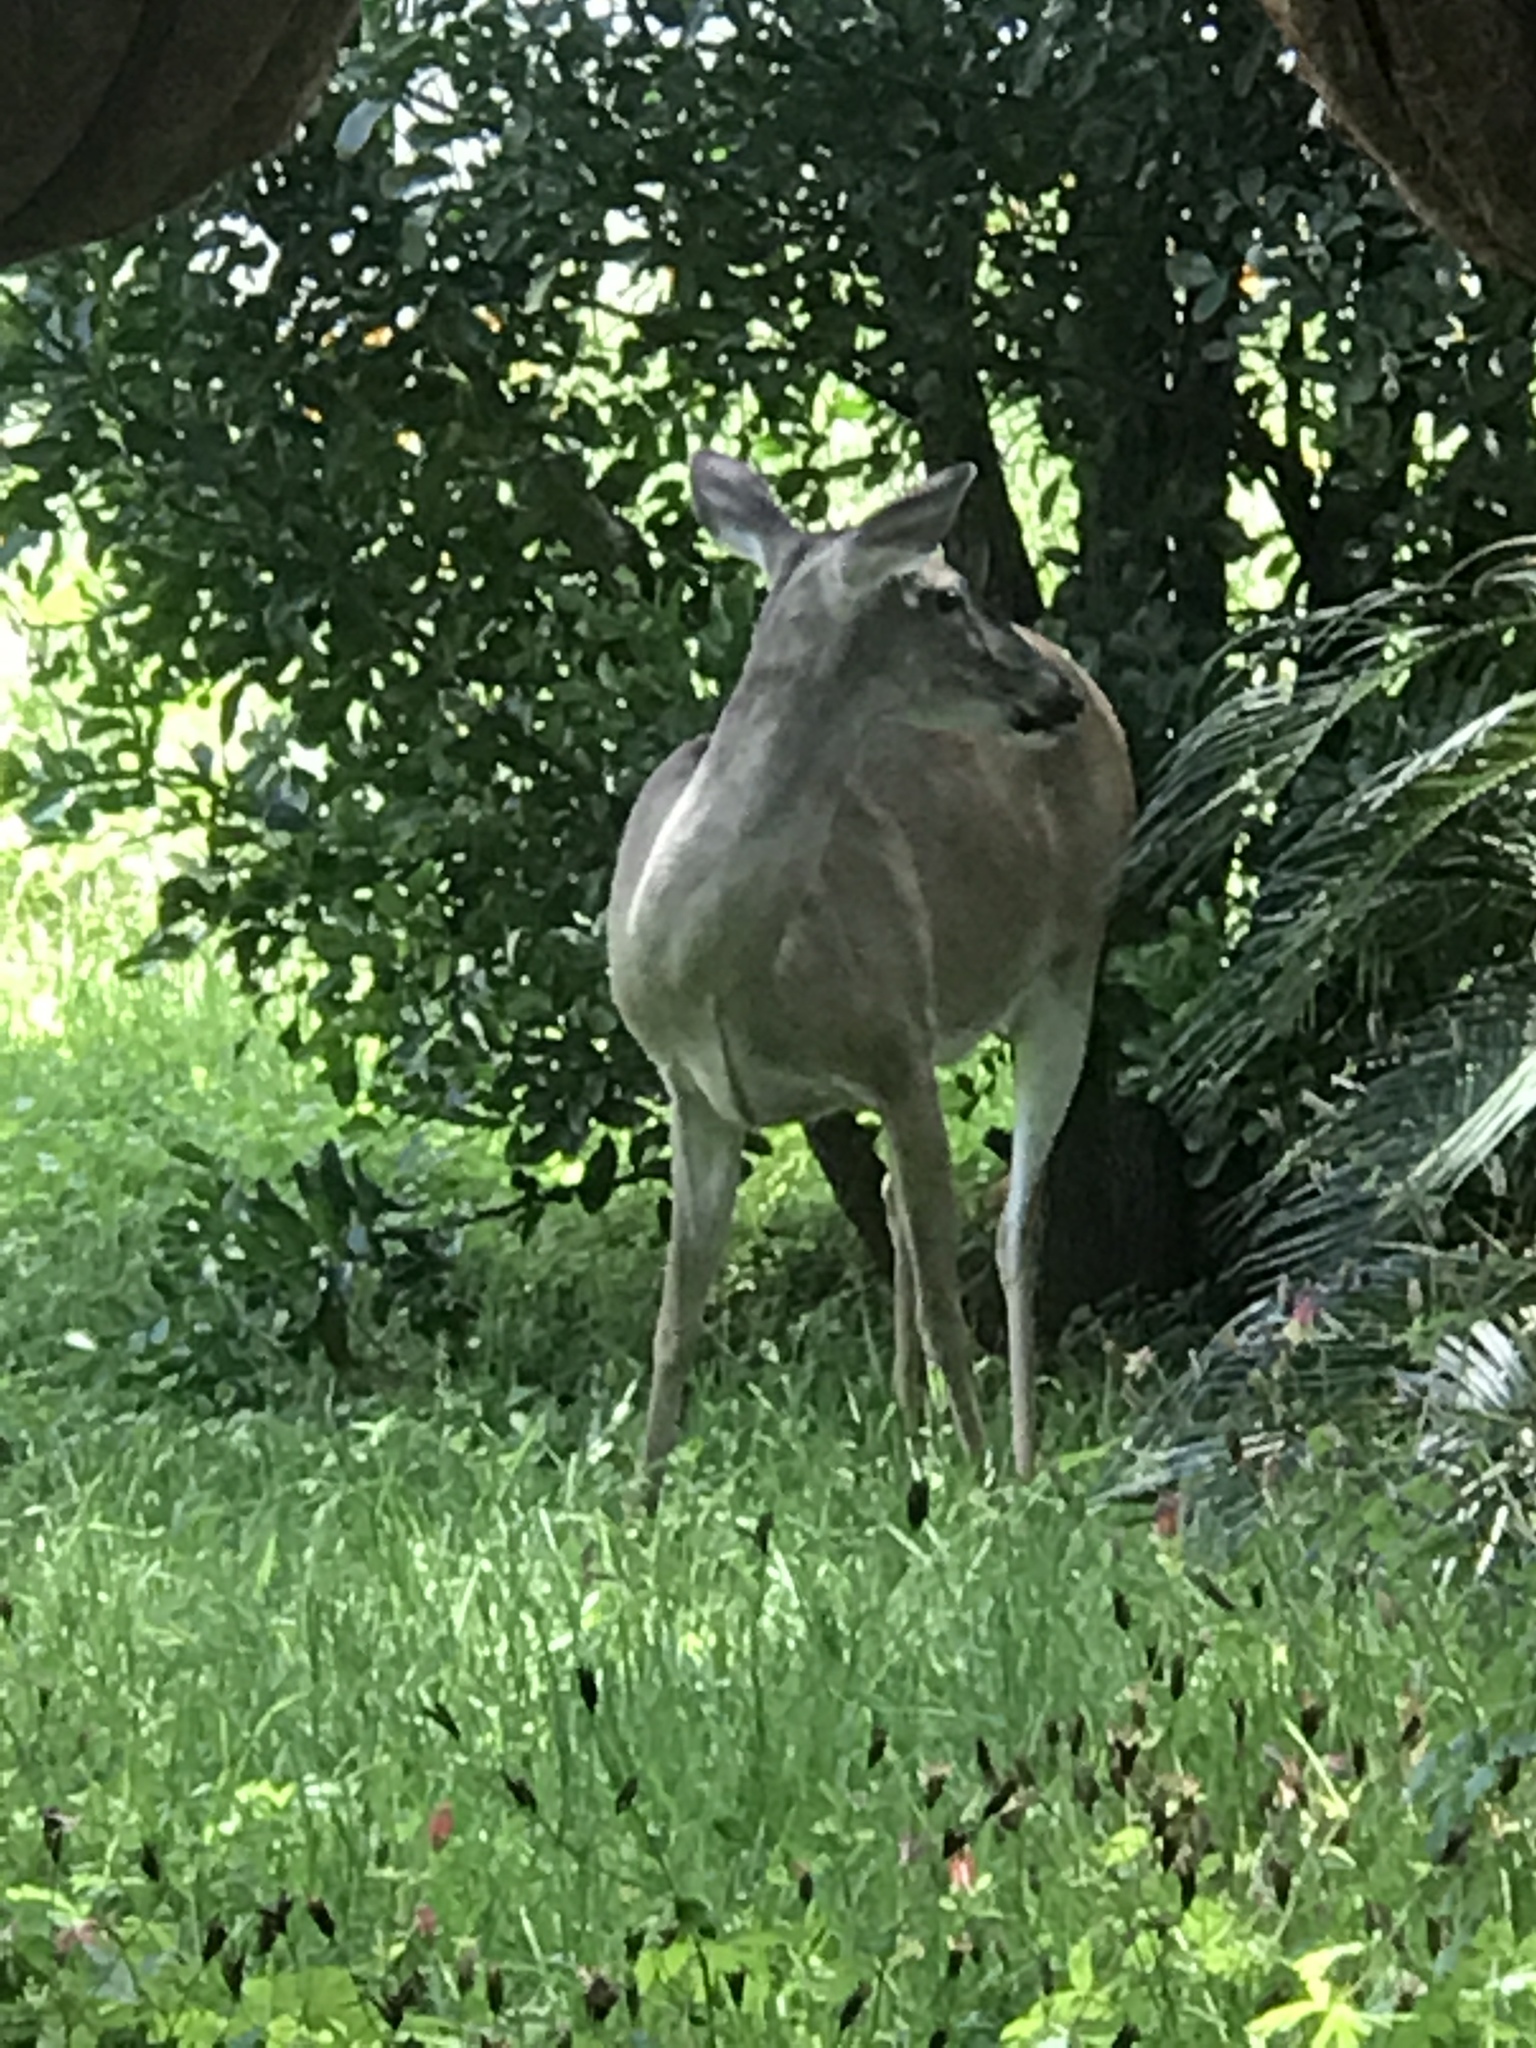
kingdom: Animalia
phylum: Chordata
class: Mammalia
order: Artiodactyla
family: Cervidae
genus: Odocoileus
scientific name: Odocoileus virginianus
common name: White-tailed deer
